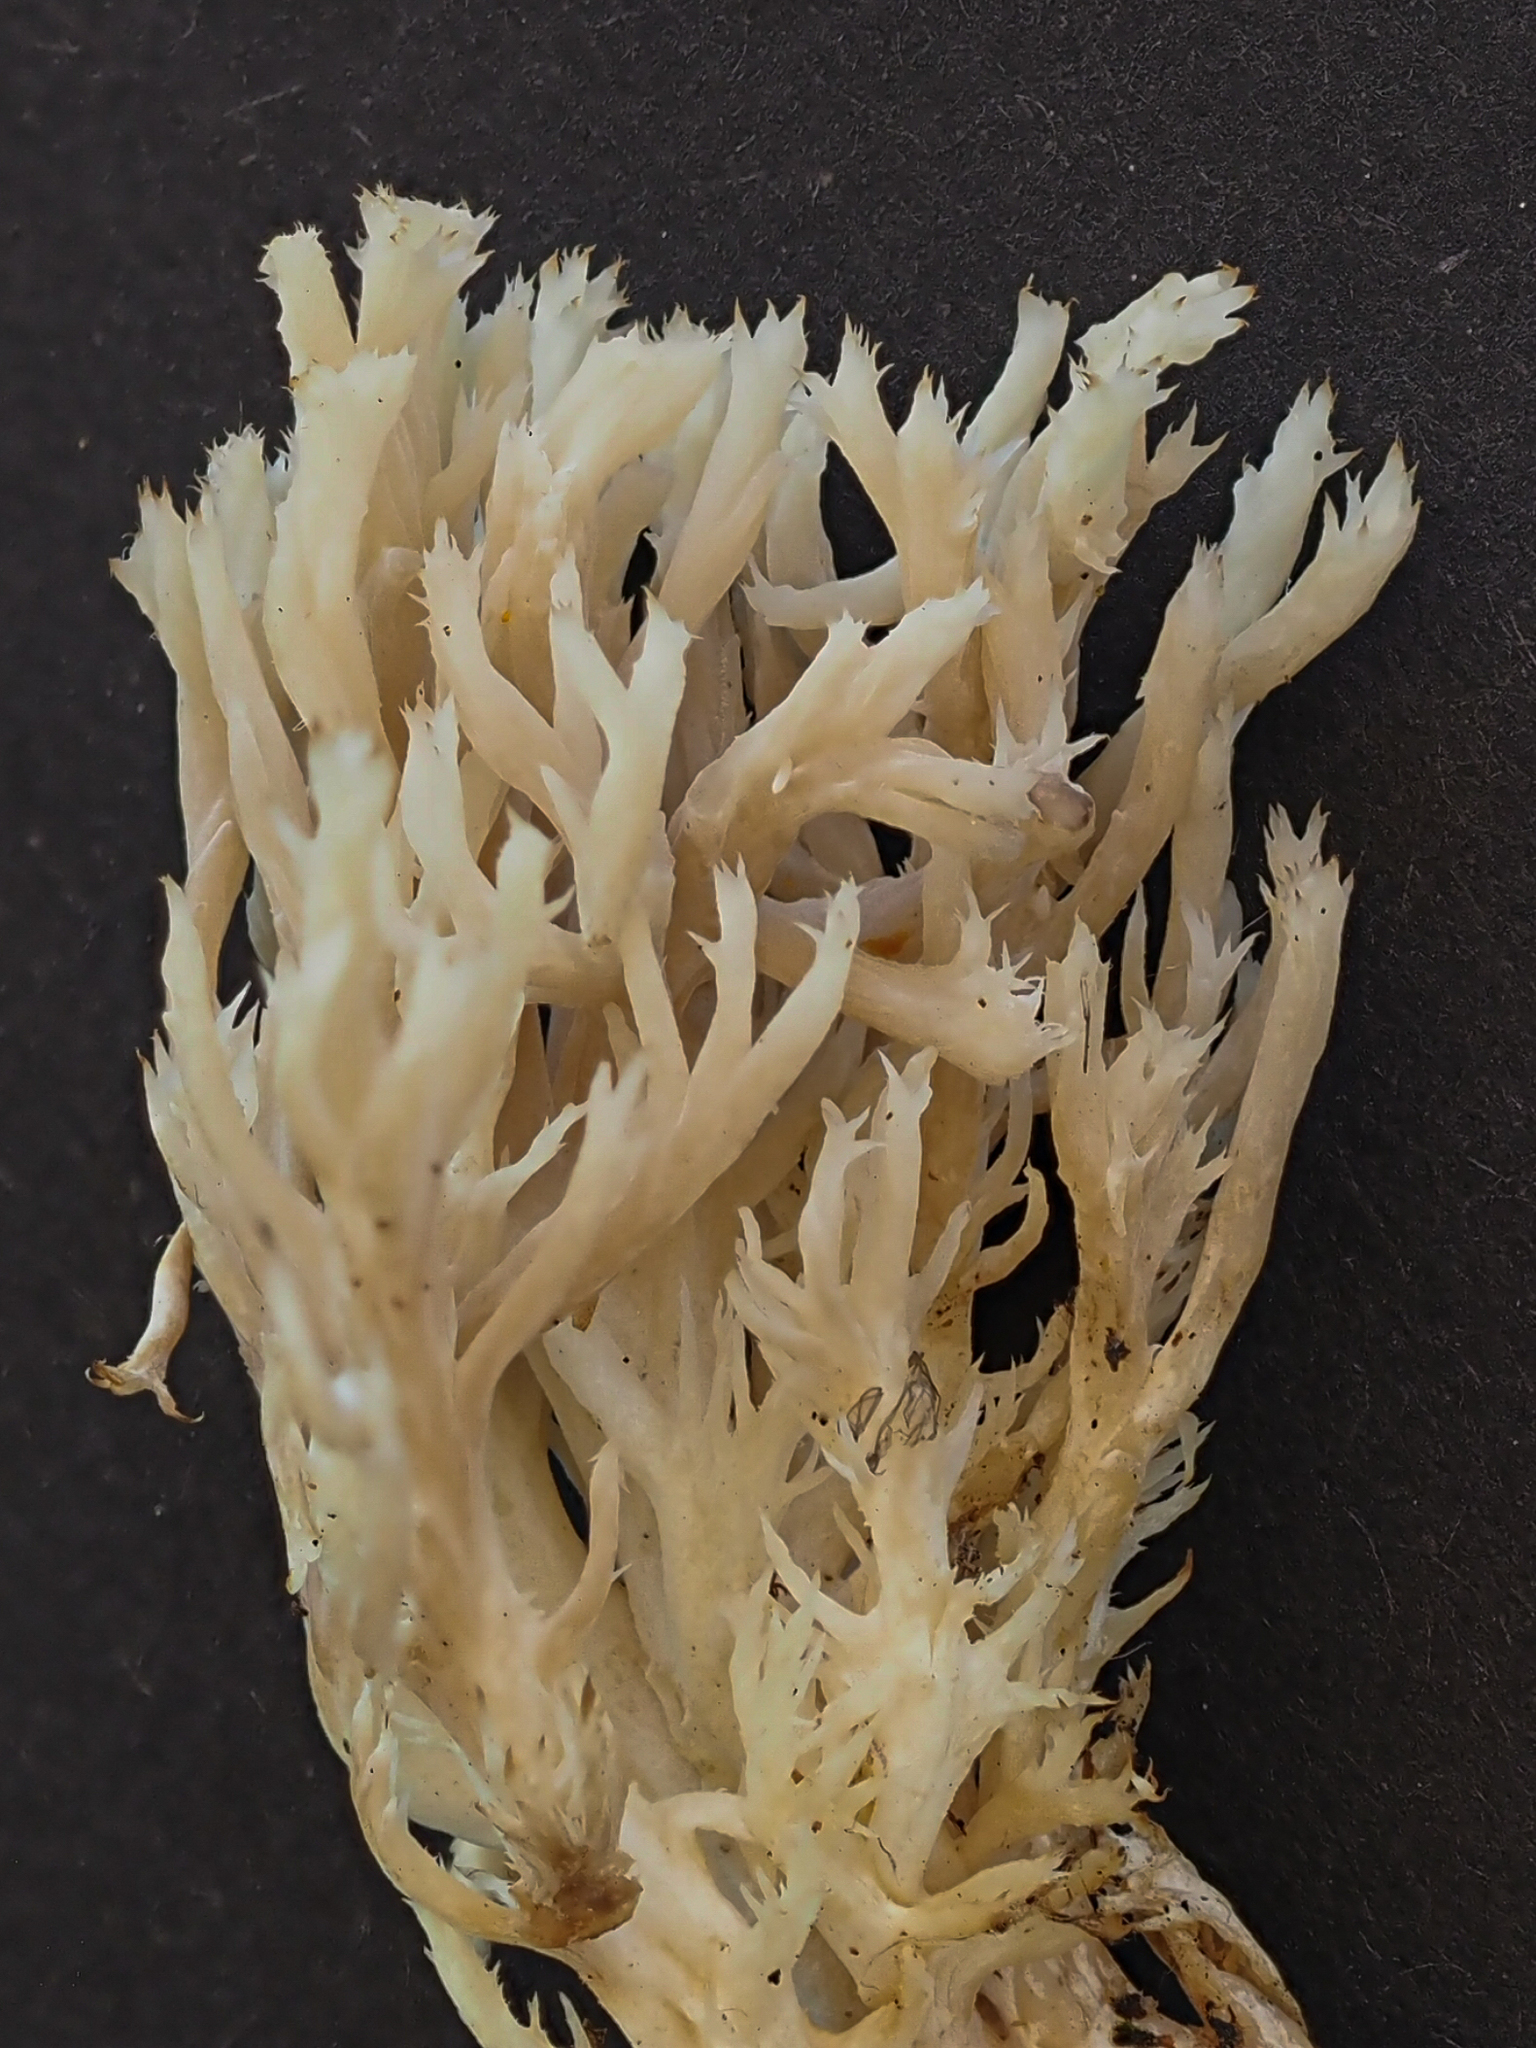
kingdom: Fungi
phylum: Basidiomycota
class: Agaricomycetes
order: Cantharellales
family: Hydnaceae
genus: Clavulina
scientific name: Clavulina coralloides
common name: Crested coral
